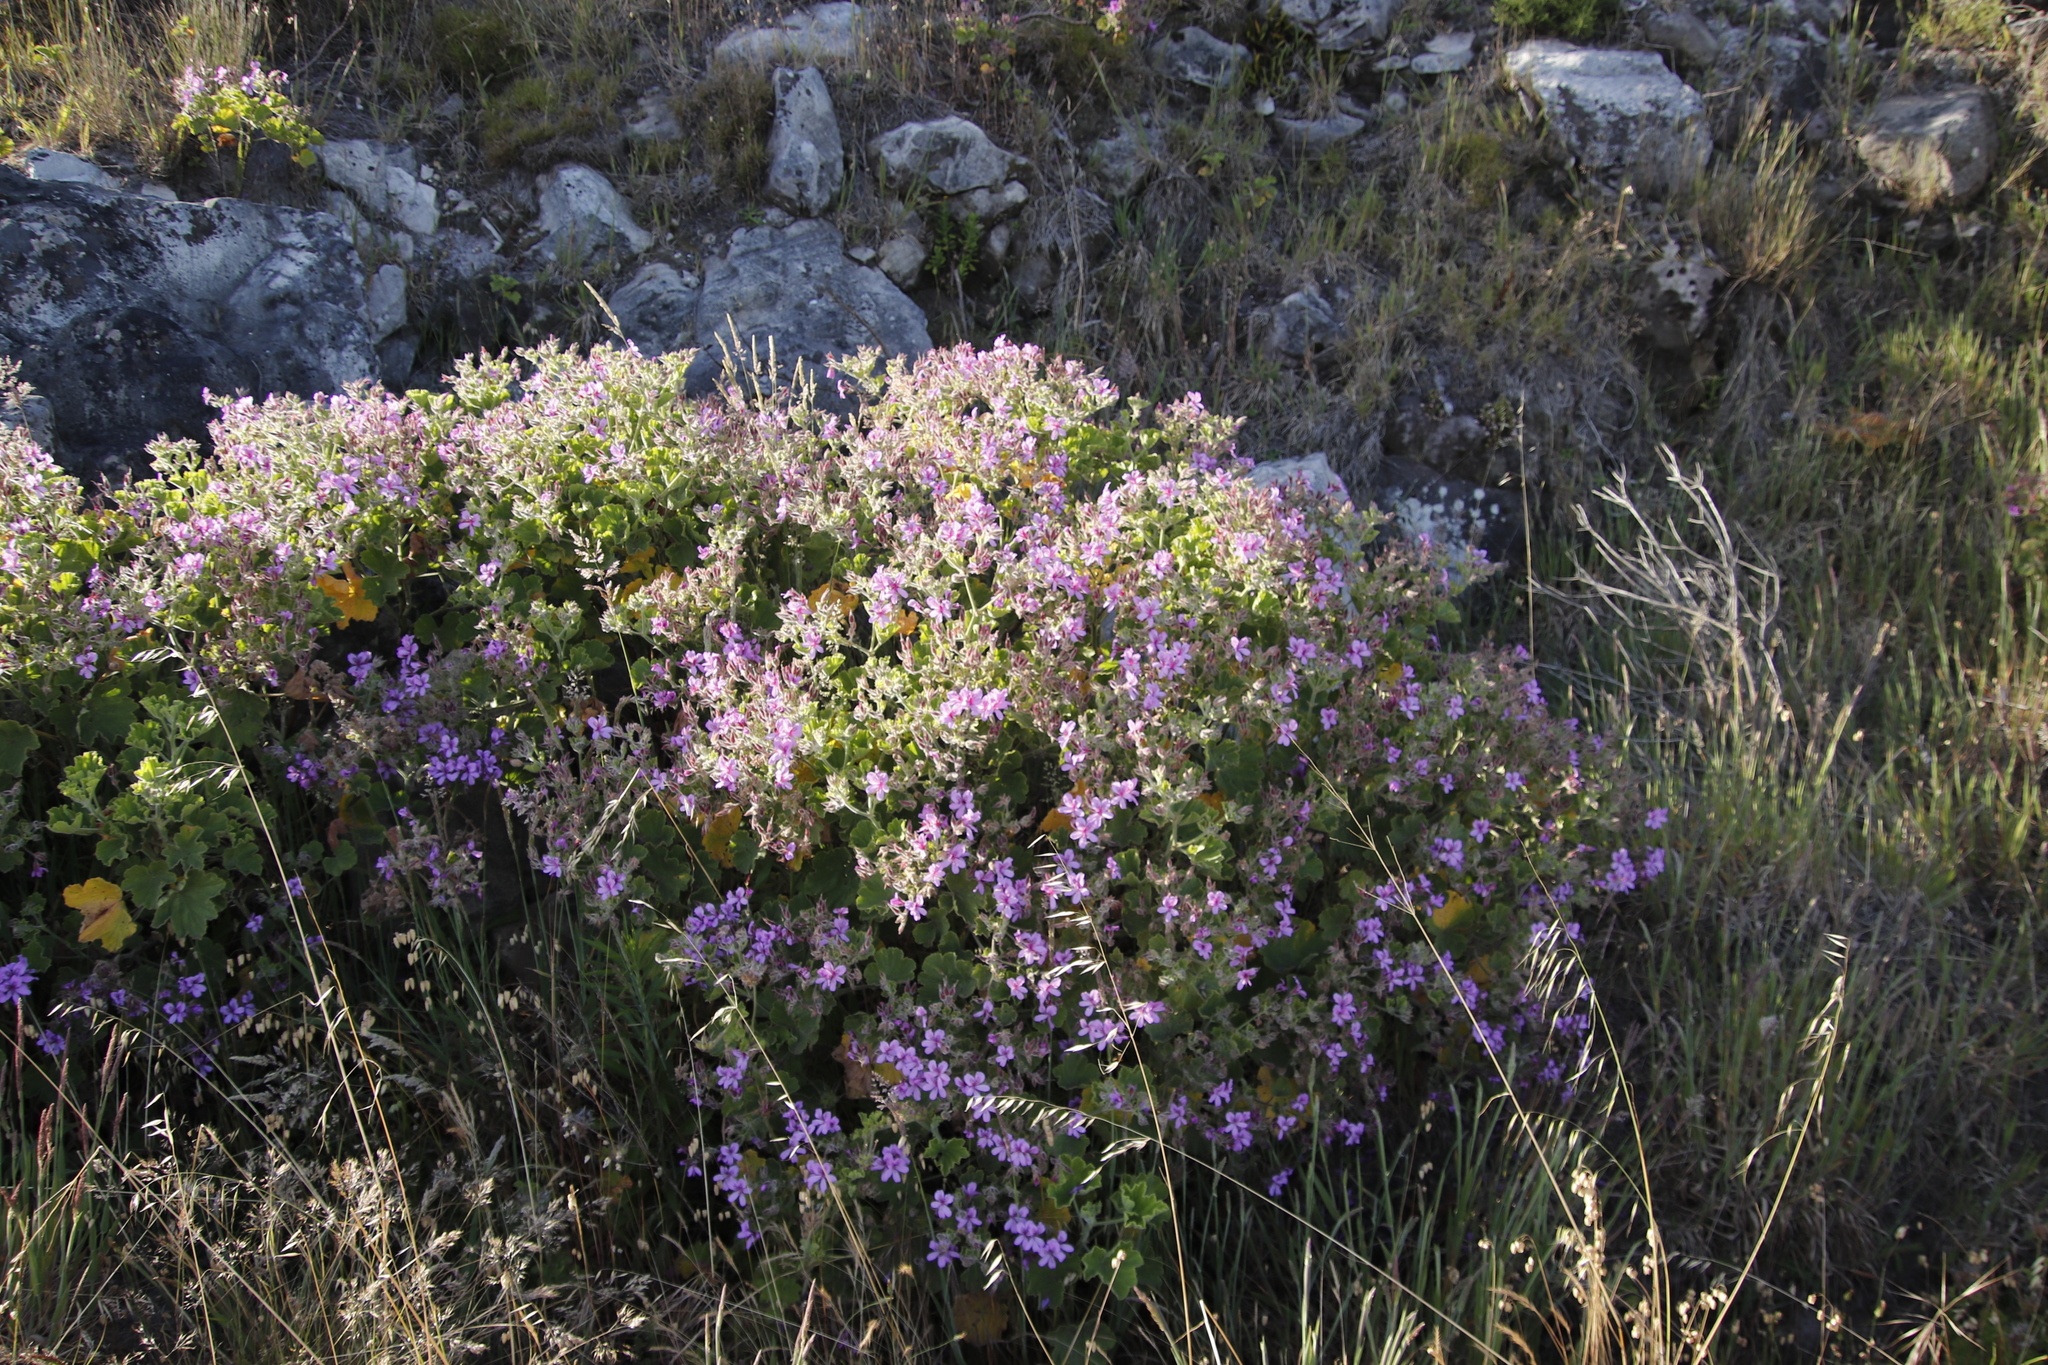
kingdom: Plantae
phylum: Tracheophyta
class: Magnoliopsida
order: Geraniales
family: Geraniaceae
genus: Pelargonium
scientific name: Pelargonium cucullatum
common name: Tree pelargonium
